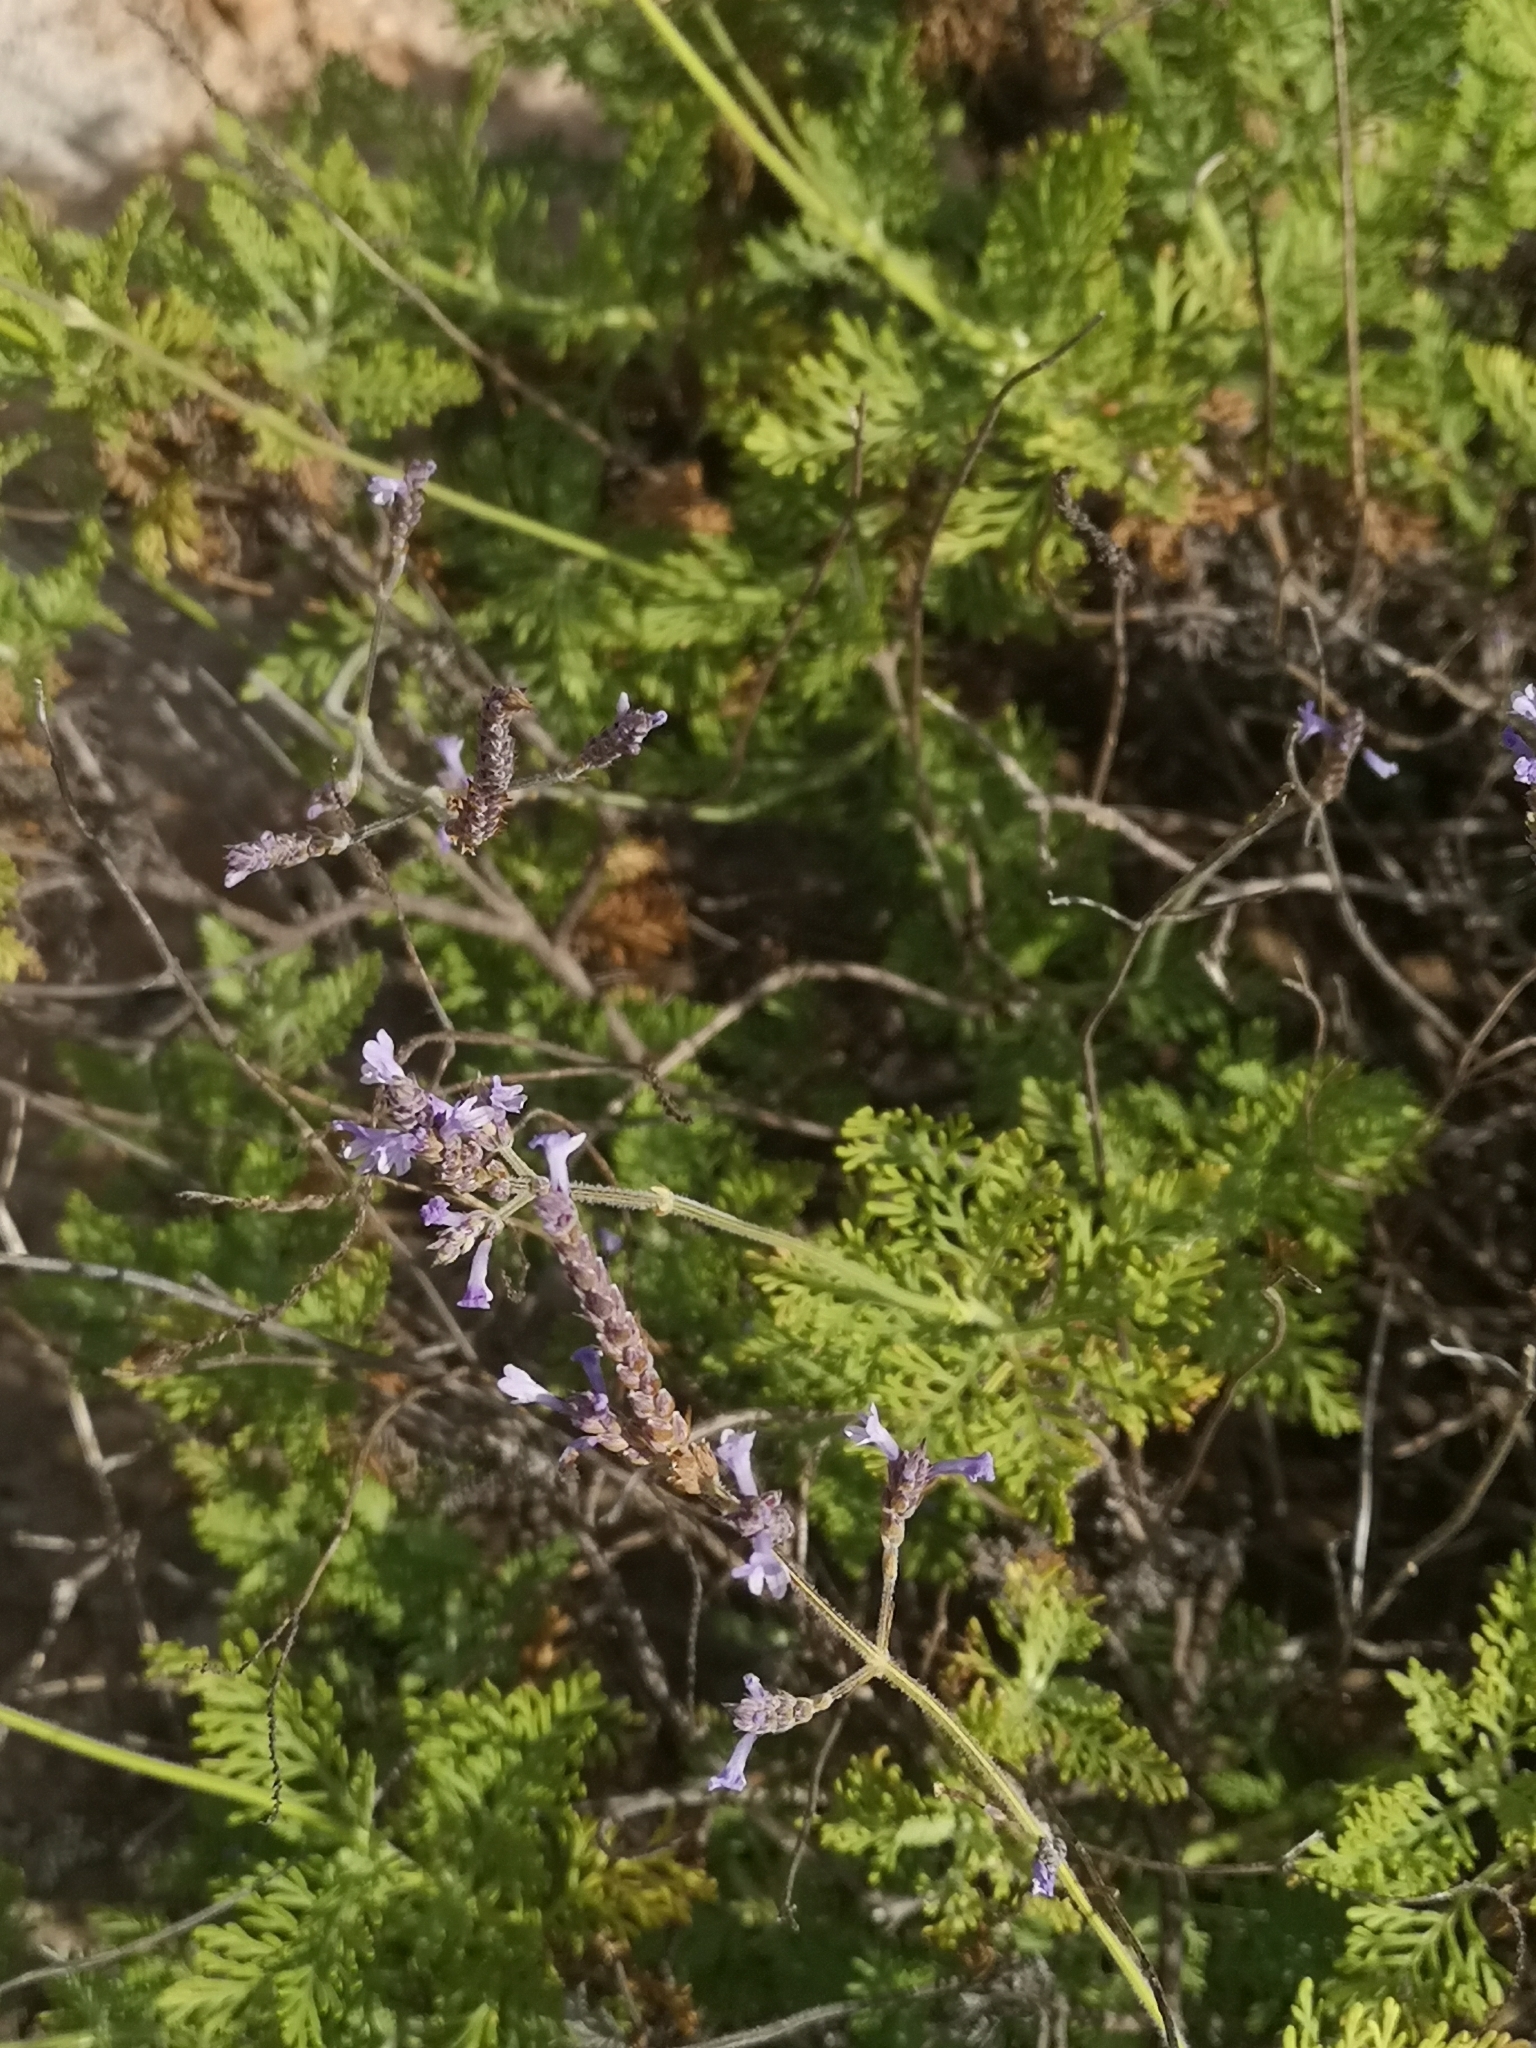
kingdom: Plantae
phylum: Tracheophyta
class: Magnoliopsida
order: Lamiales
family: Lamiaceae
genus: Lavandula
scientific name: Lavandula canariensis
